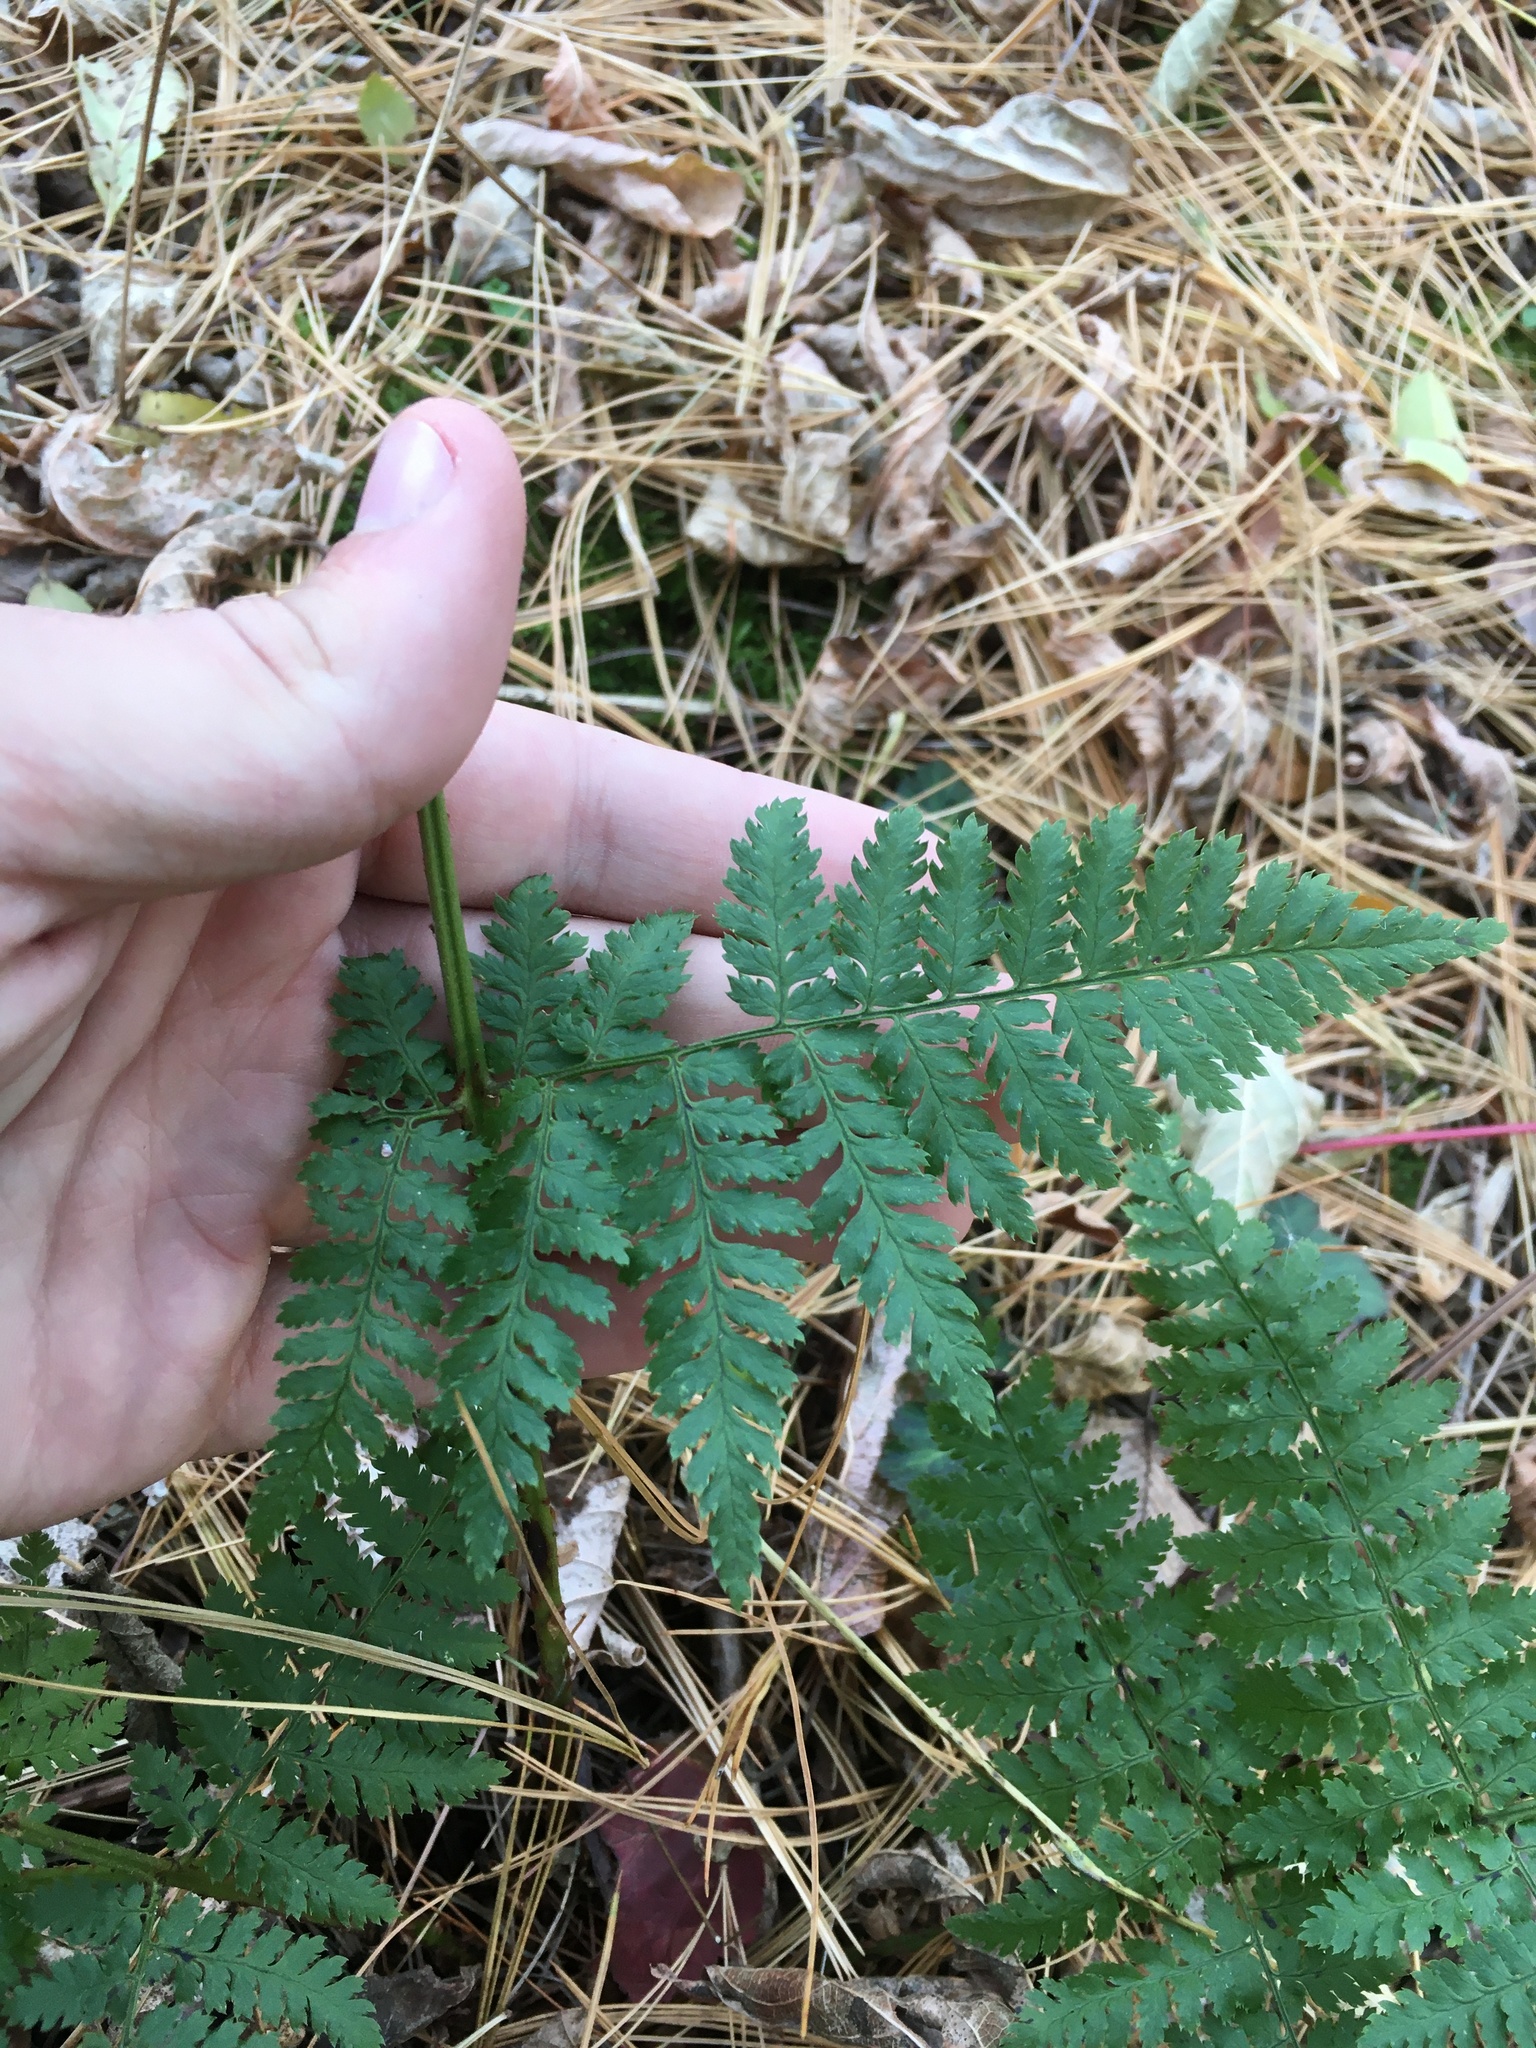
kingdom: Plantae
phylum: Tracheophyta
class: Polypodiopsida
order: Polypodiales
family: Dryopteridaceae
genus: Dryopteris
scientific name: Dryopteris intermedia
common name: Evergreen wood fern
